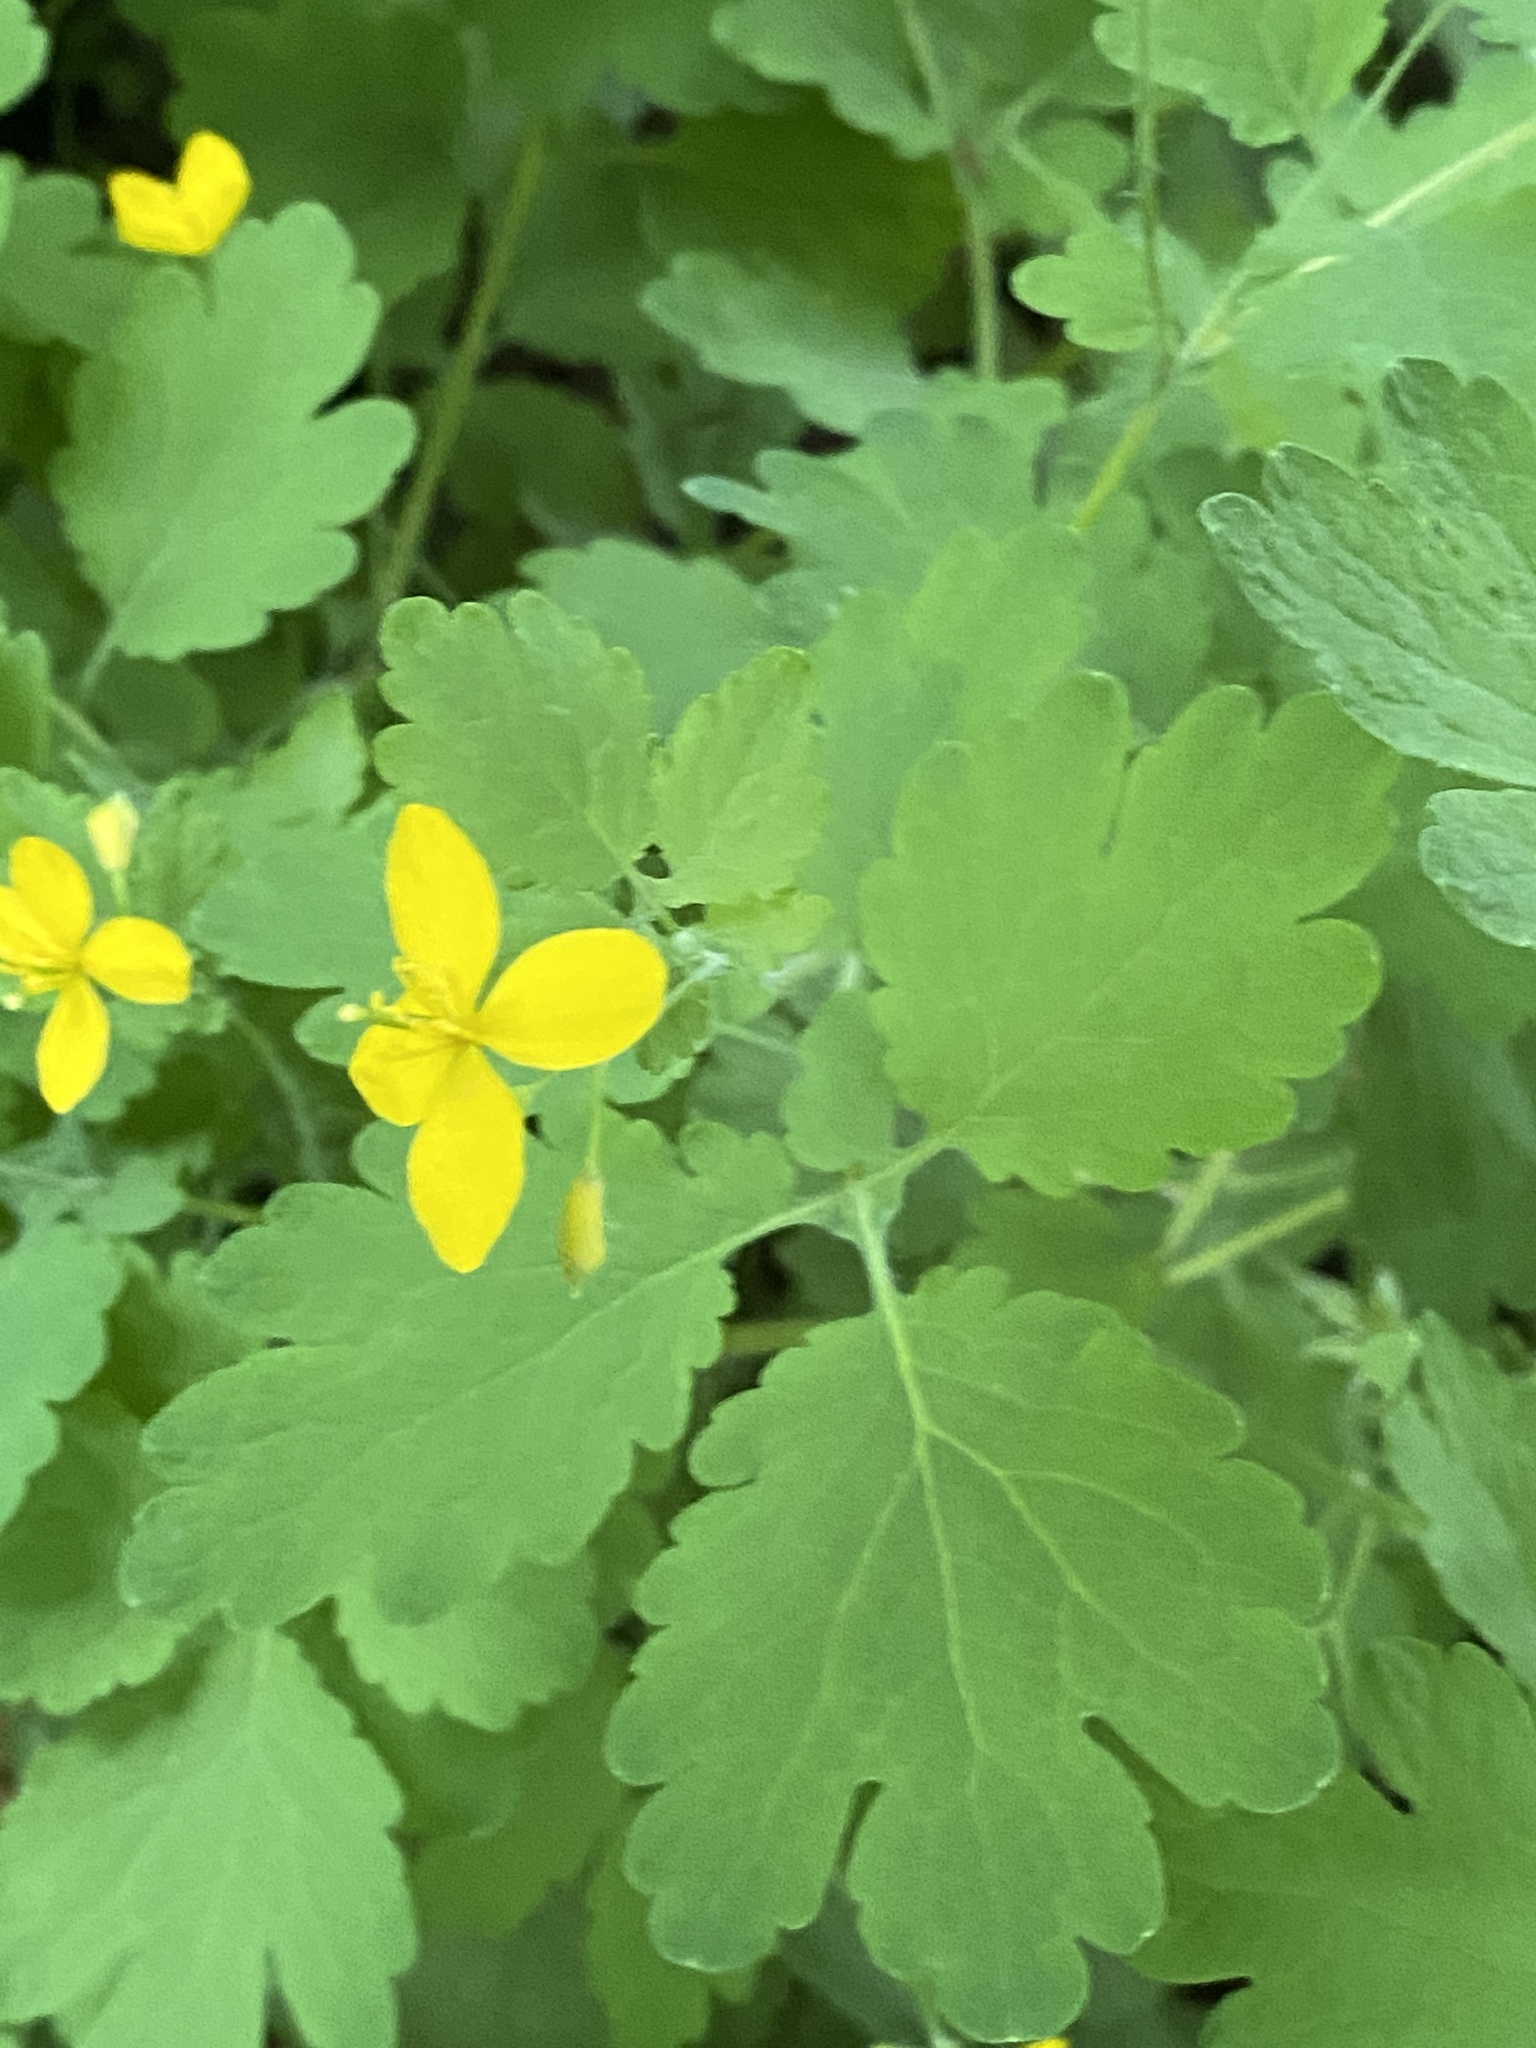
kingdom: Plantae
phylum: Tracheophyta
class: Magnoliopsida
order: Ranunculales
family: Papaveraceae
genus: Chelidonium
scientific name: Chelidonium majus
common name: Greater celandine
